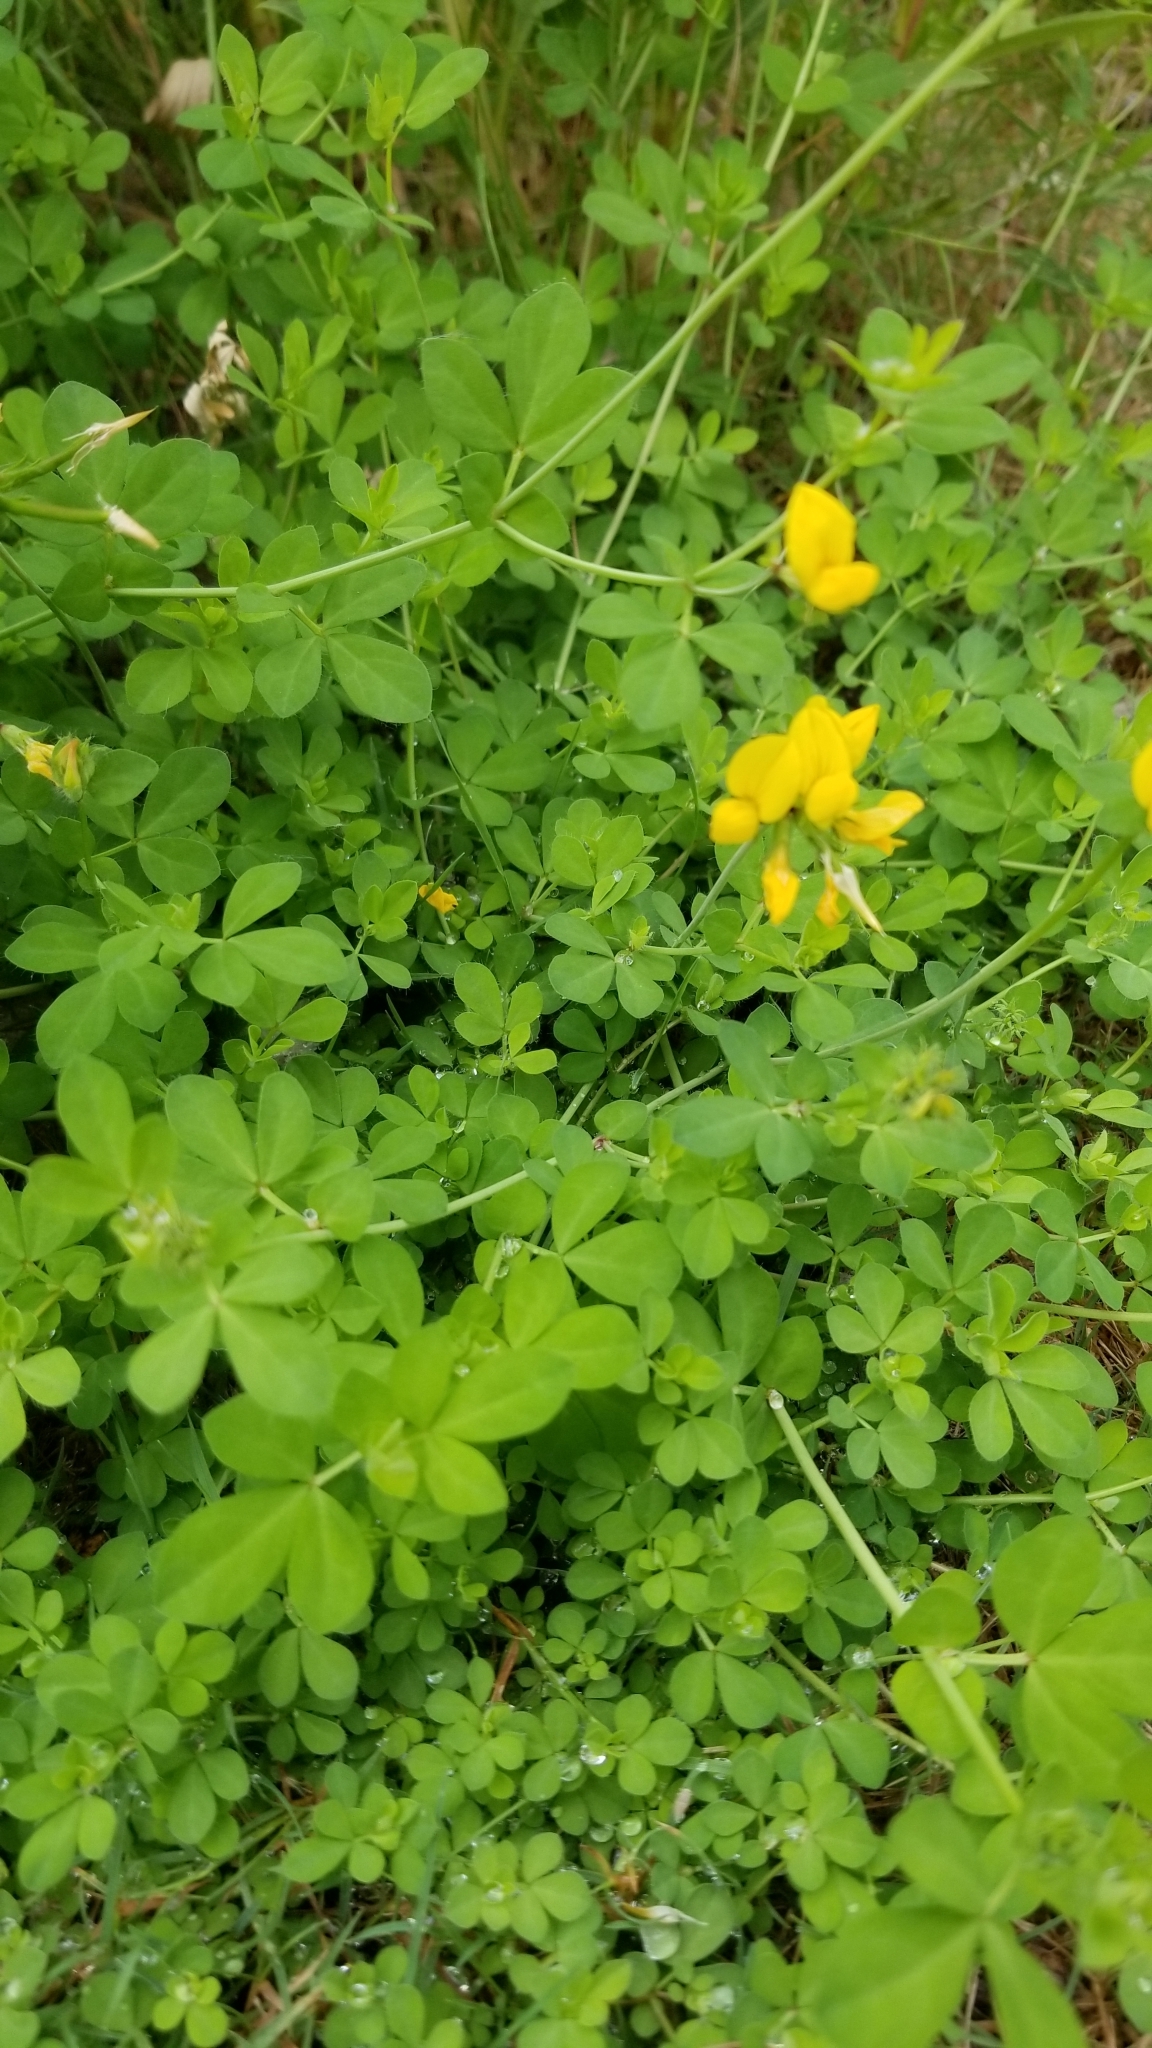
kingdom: Plantae
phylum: Tracheophyta
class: Magnoliopsida
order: Fabales
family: Fabaceae
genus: Lotus
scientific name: Lotus pedunculatus
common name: Greater birdsfoot-trefoil
